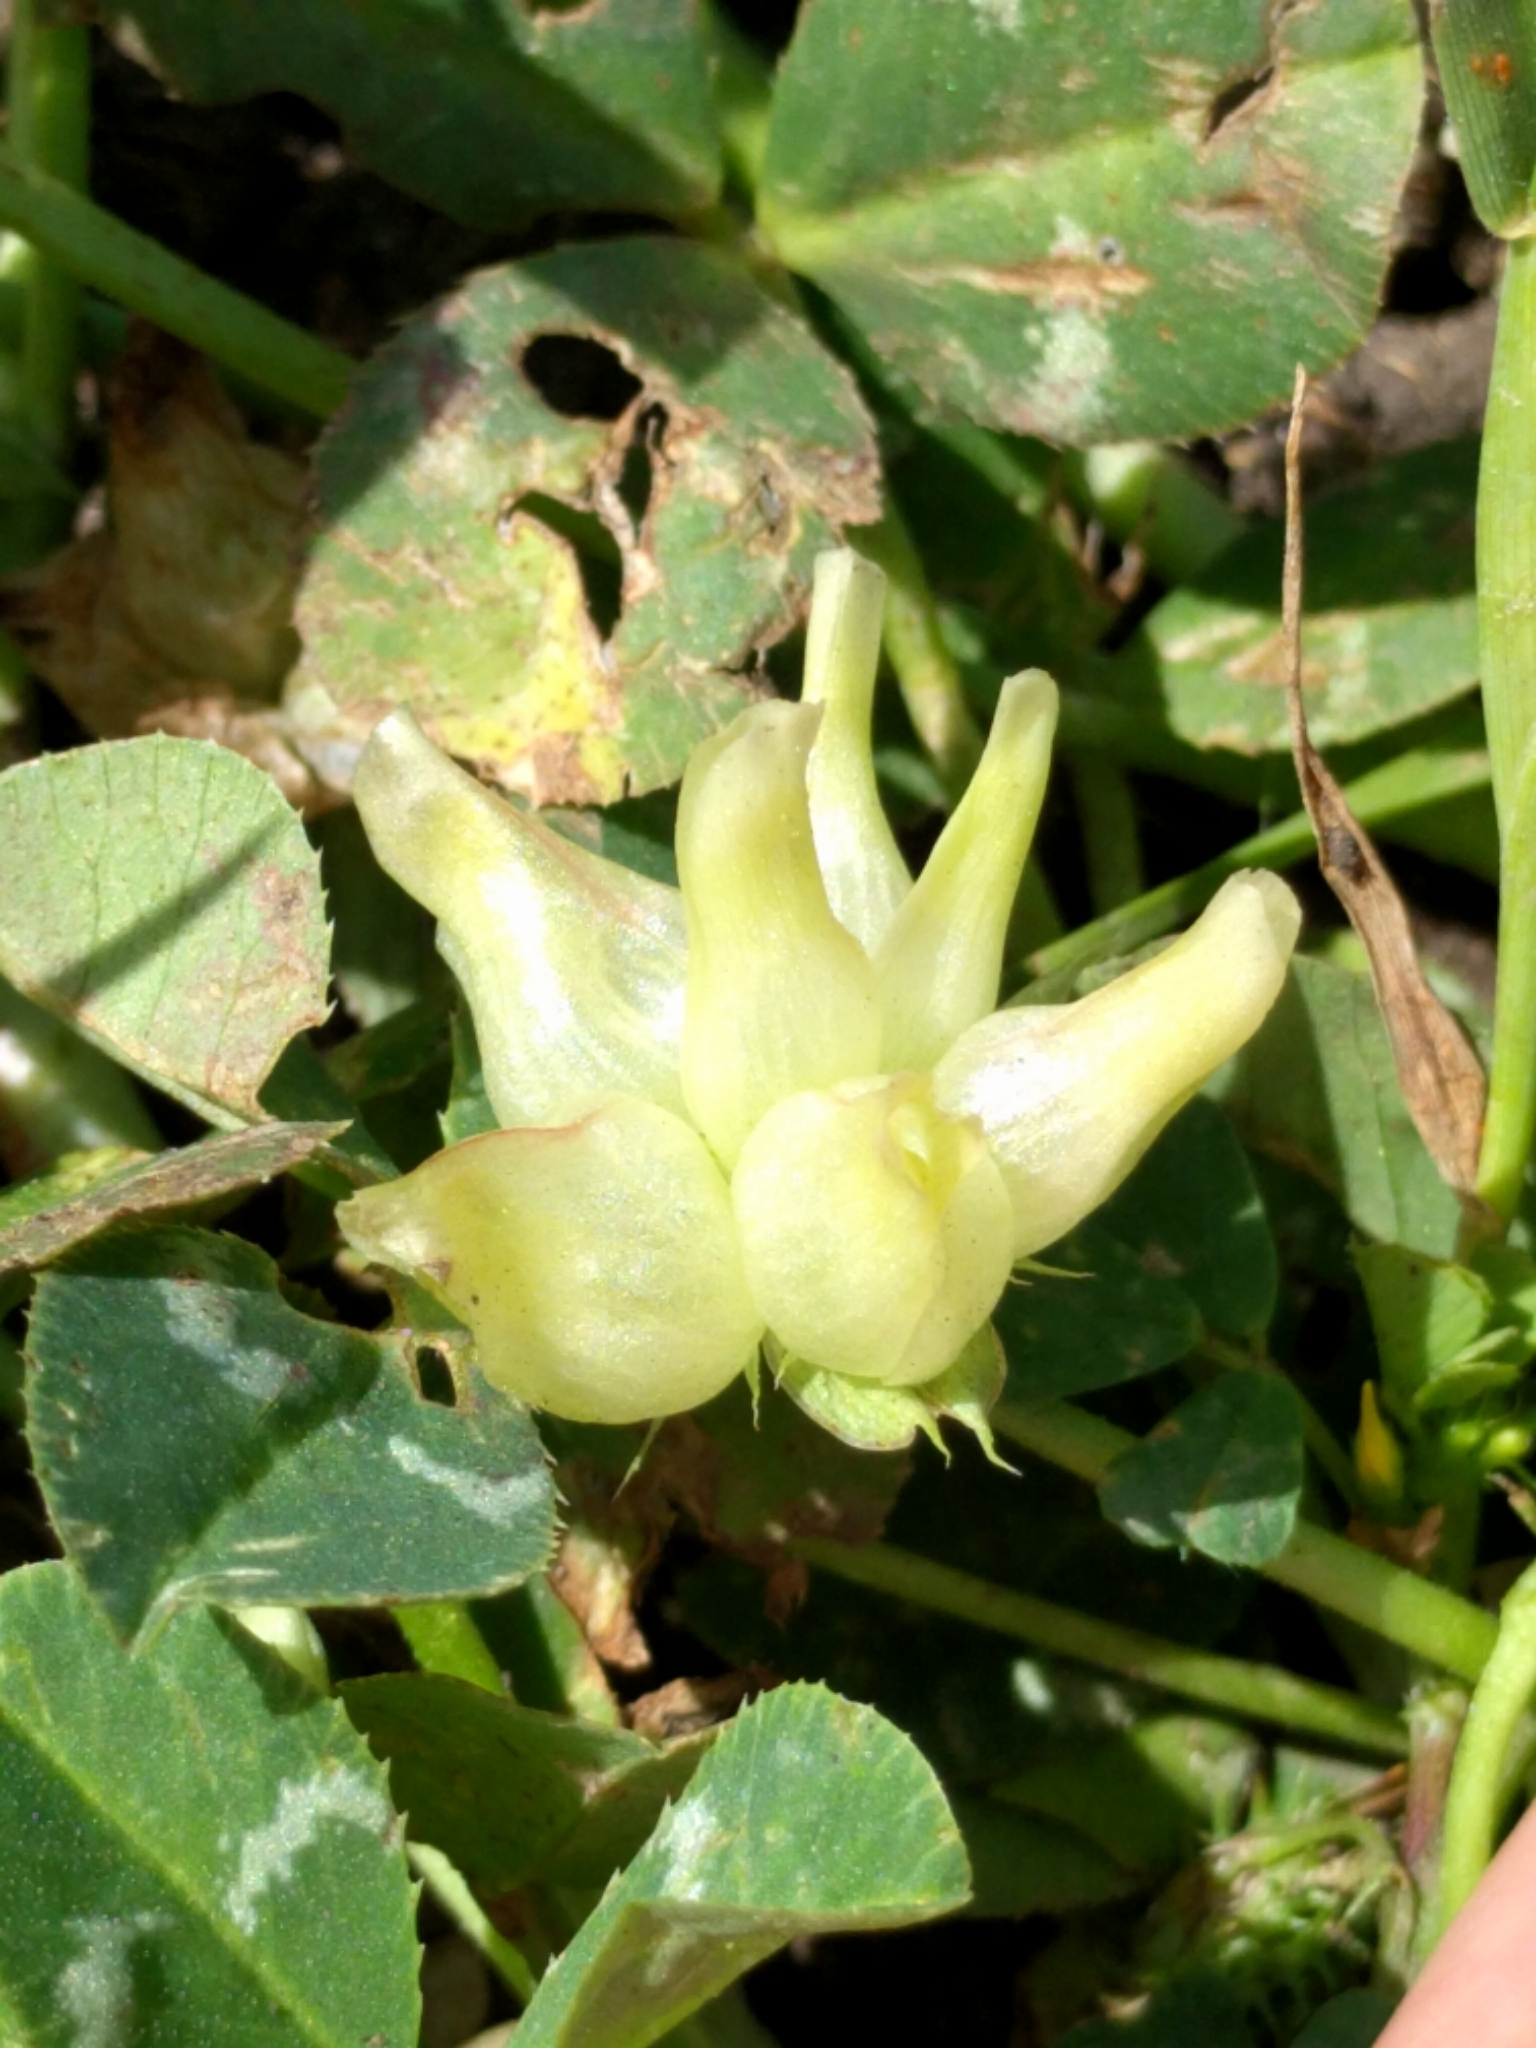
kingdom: Plantae
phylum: Tracheophyta
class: Magnoliopsida
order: Fabales
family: Fabaceae
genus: Trifolium
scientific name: Trifolium fucatum
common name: Puff clover
